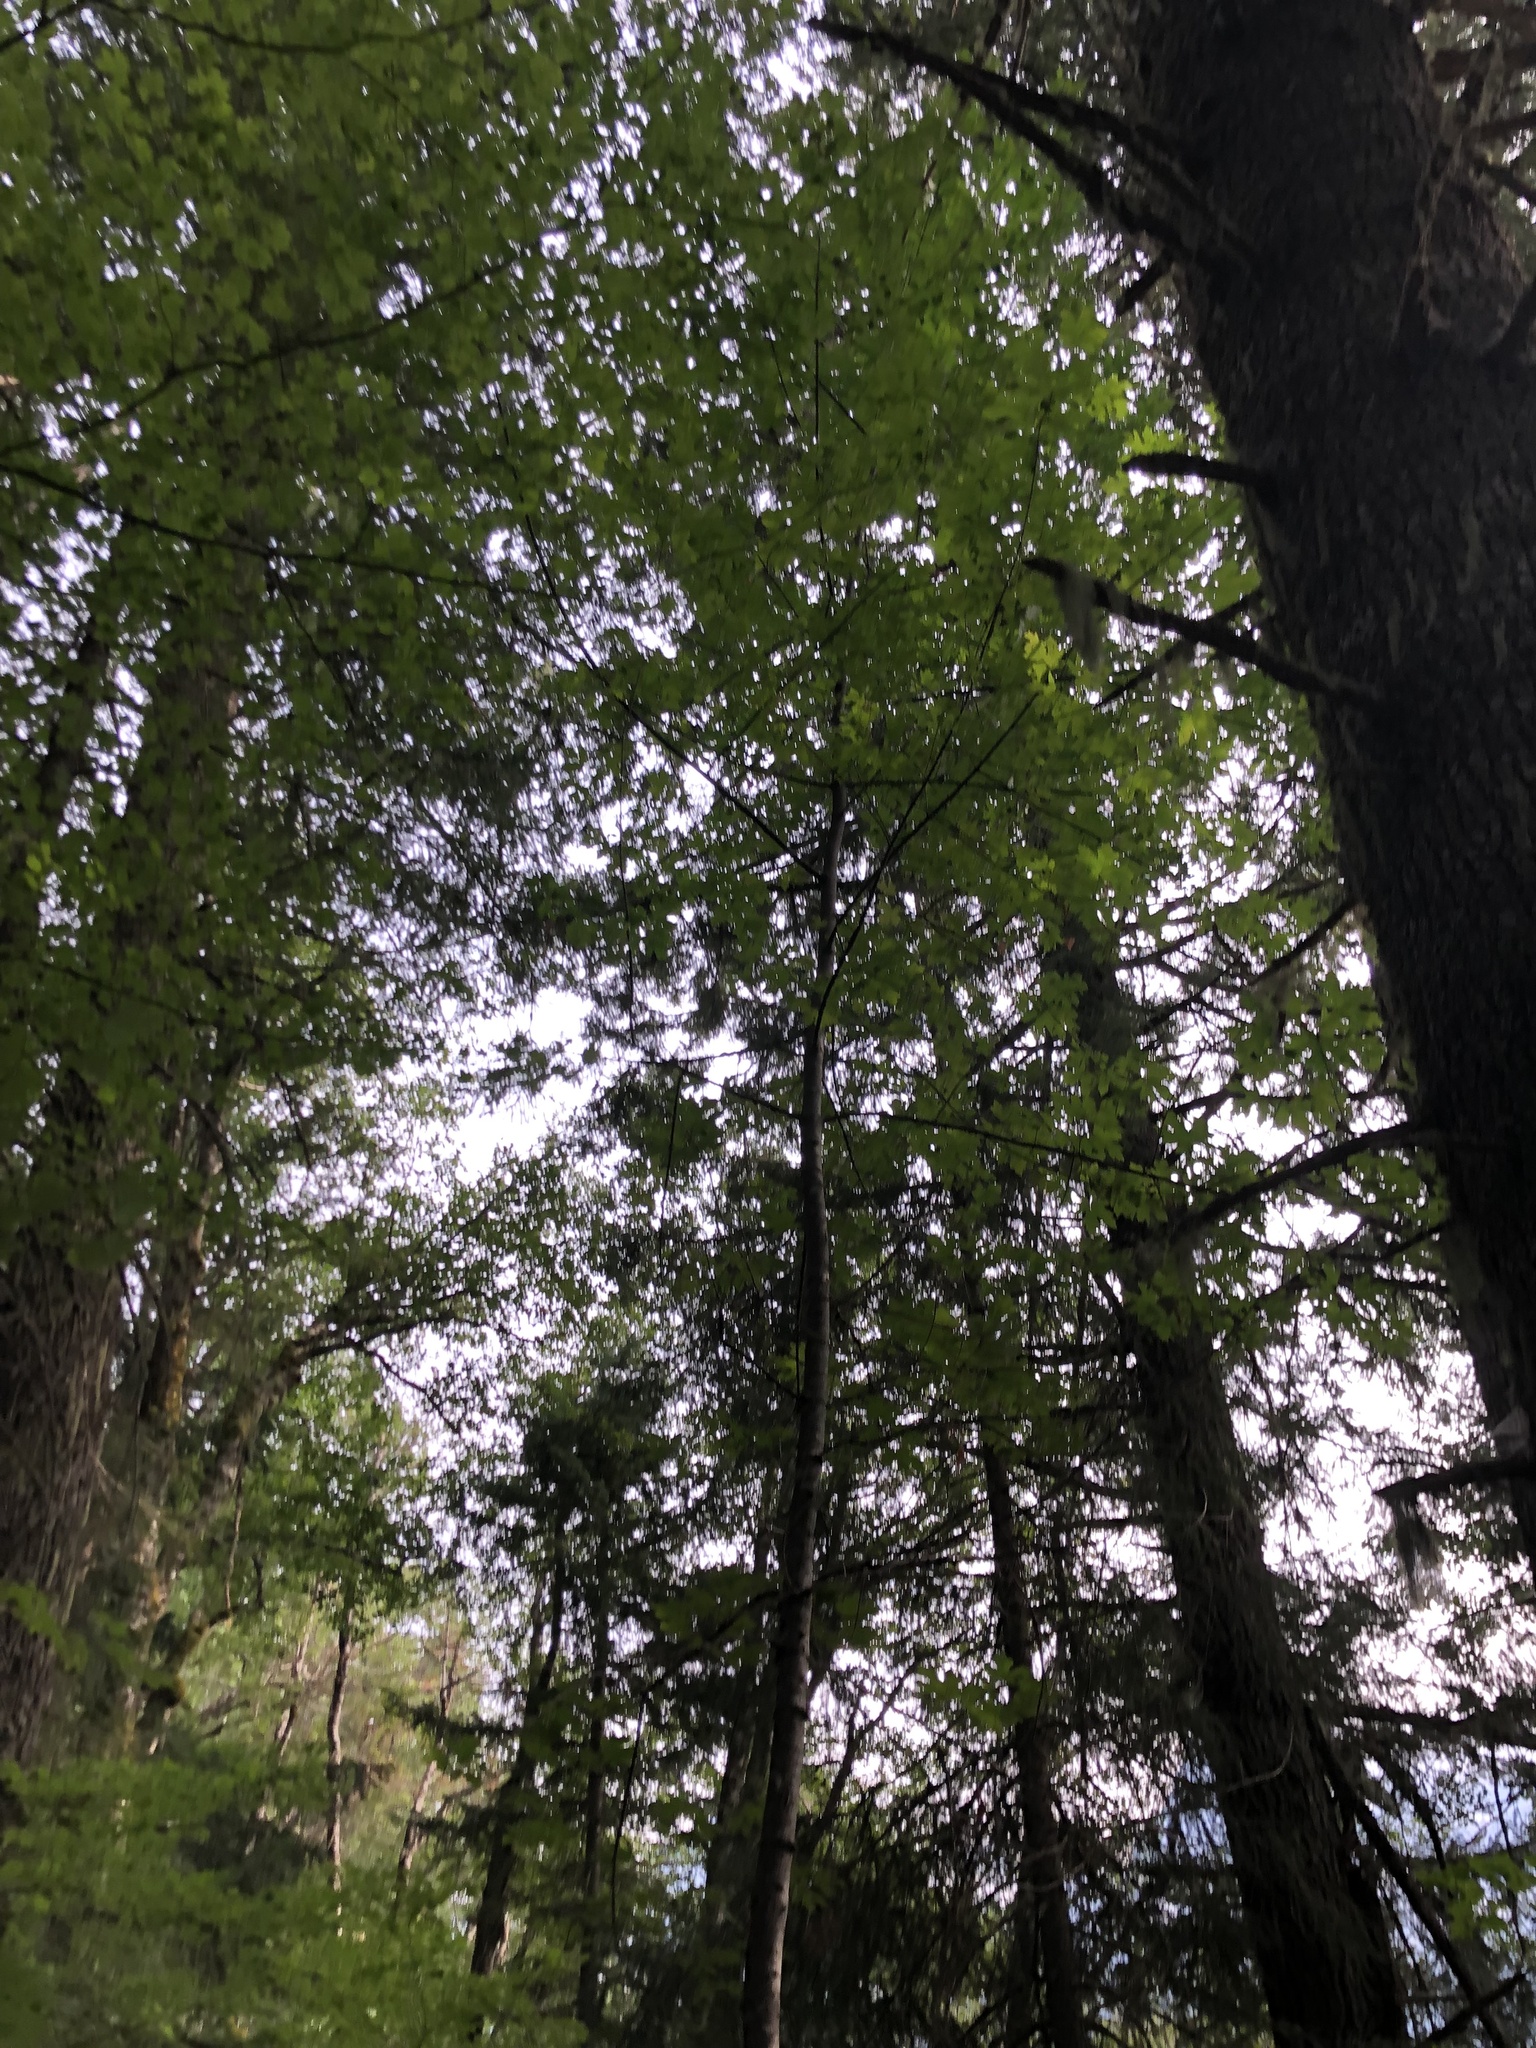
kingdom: Plantae
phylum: Tracheophyta
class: Magnoliopsida
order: Sapindales
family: Sapindaceae
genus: Acer
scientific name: Acer macrophyllum
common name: Oregon maple
